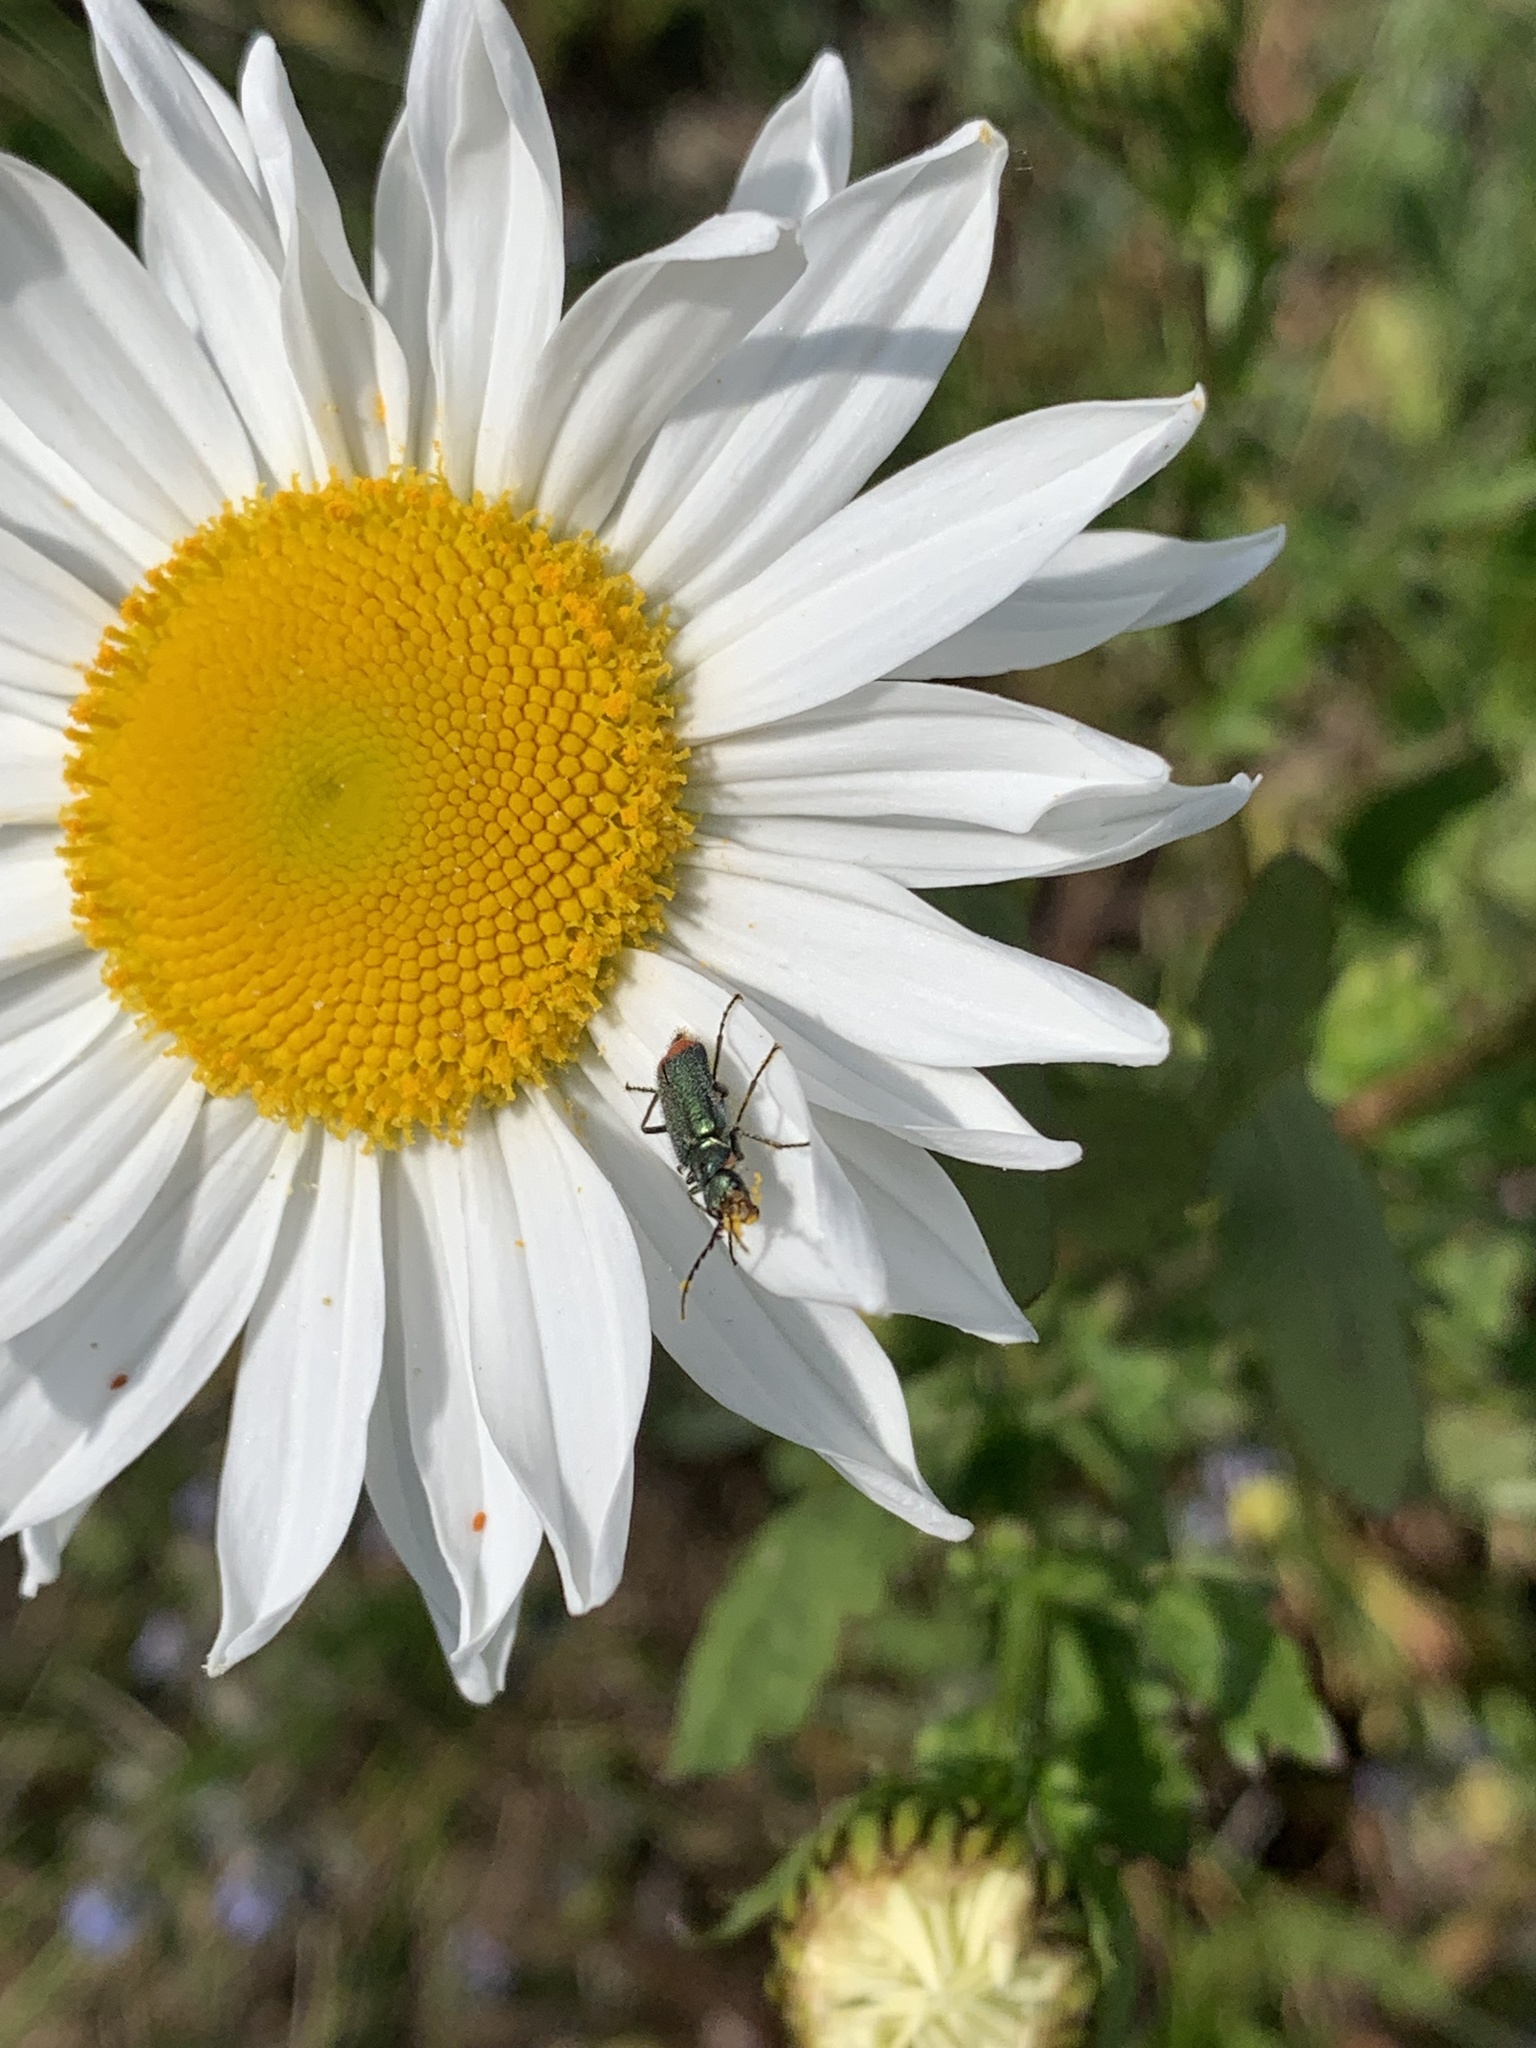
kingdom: Animalia
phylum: Arthropoda
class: Insecta
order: Coleoptera
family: Melyridae
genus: Malachius
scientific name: Malachius bipustulatus
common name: Malachite beetle
